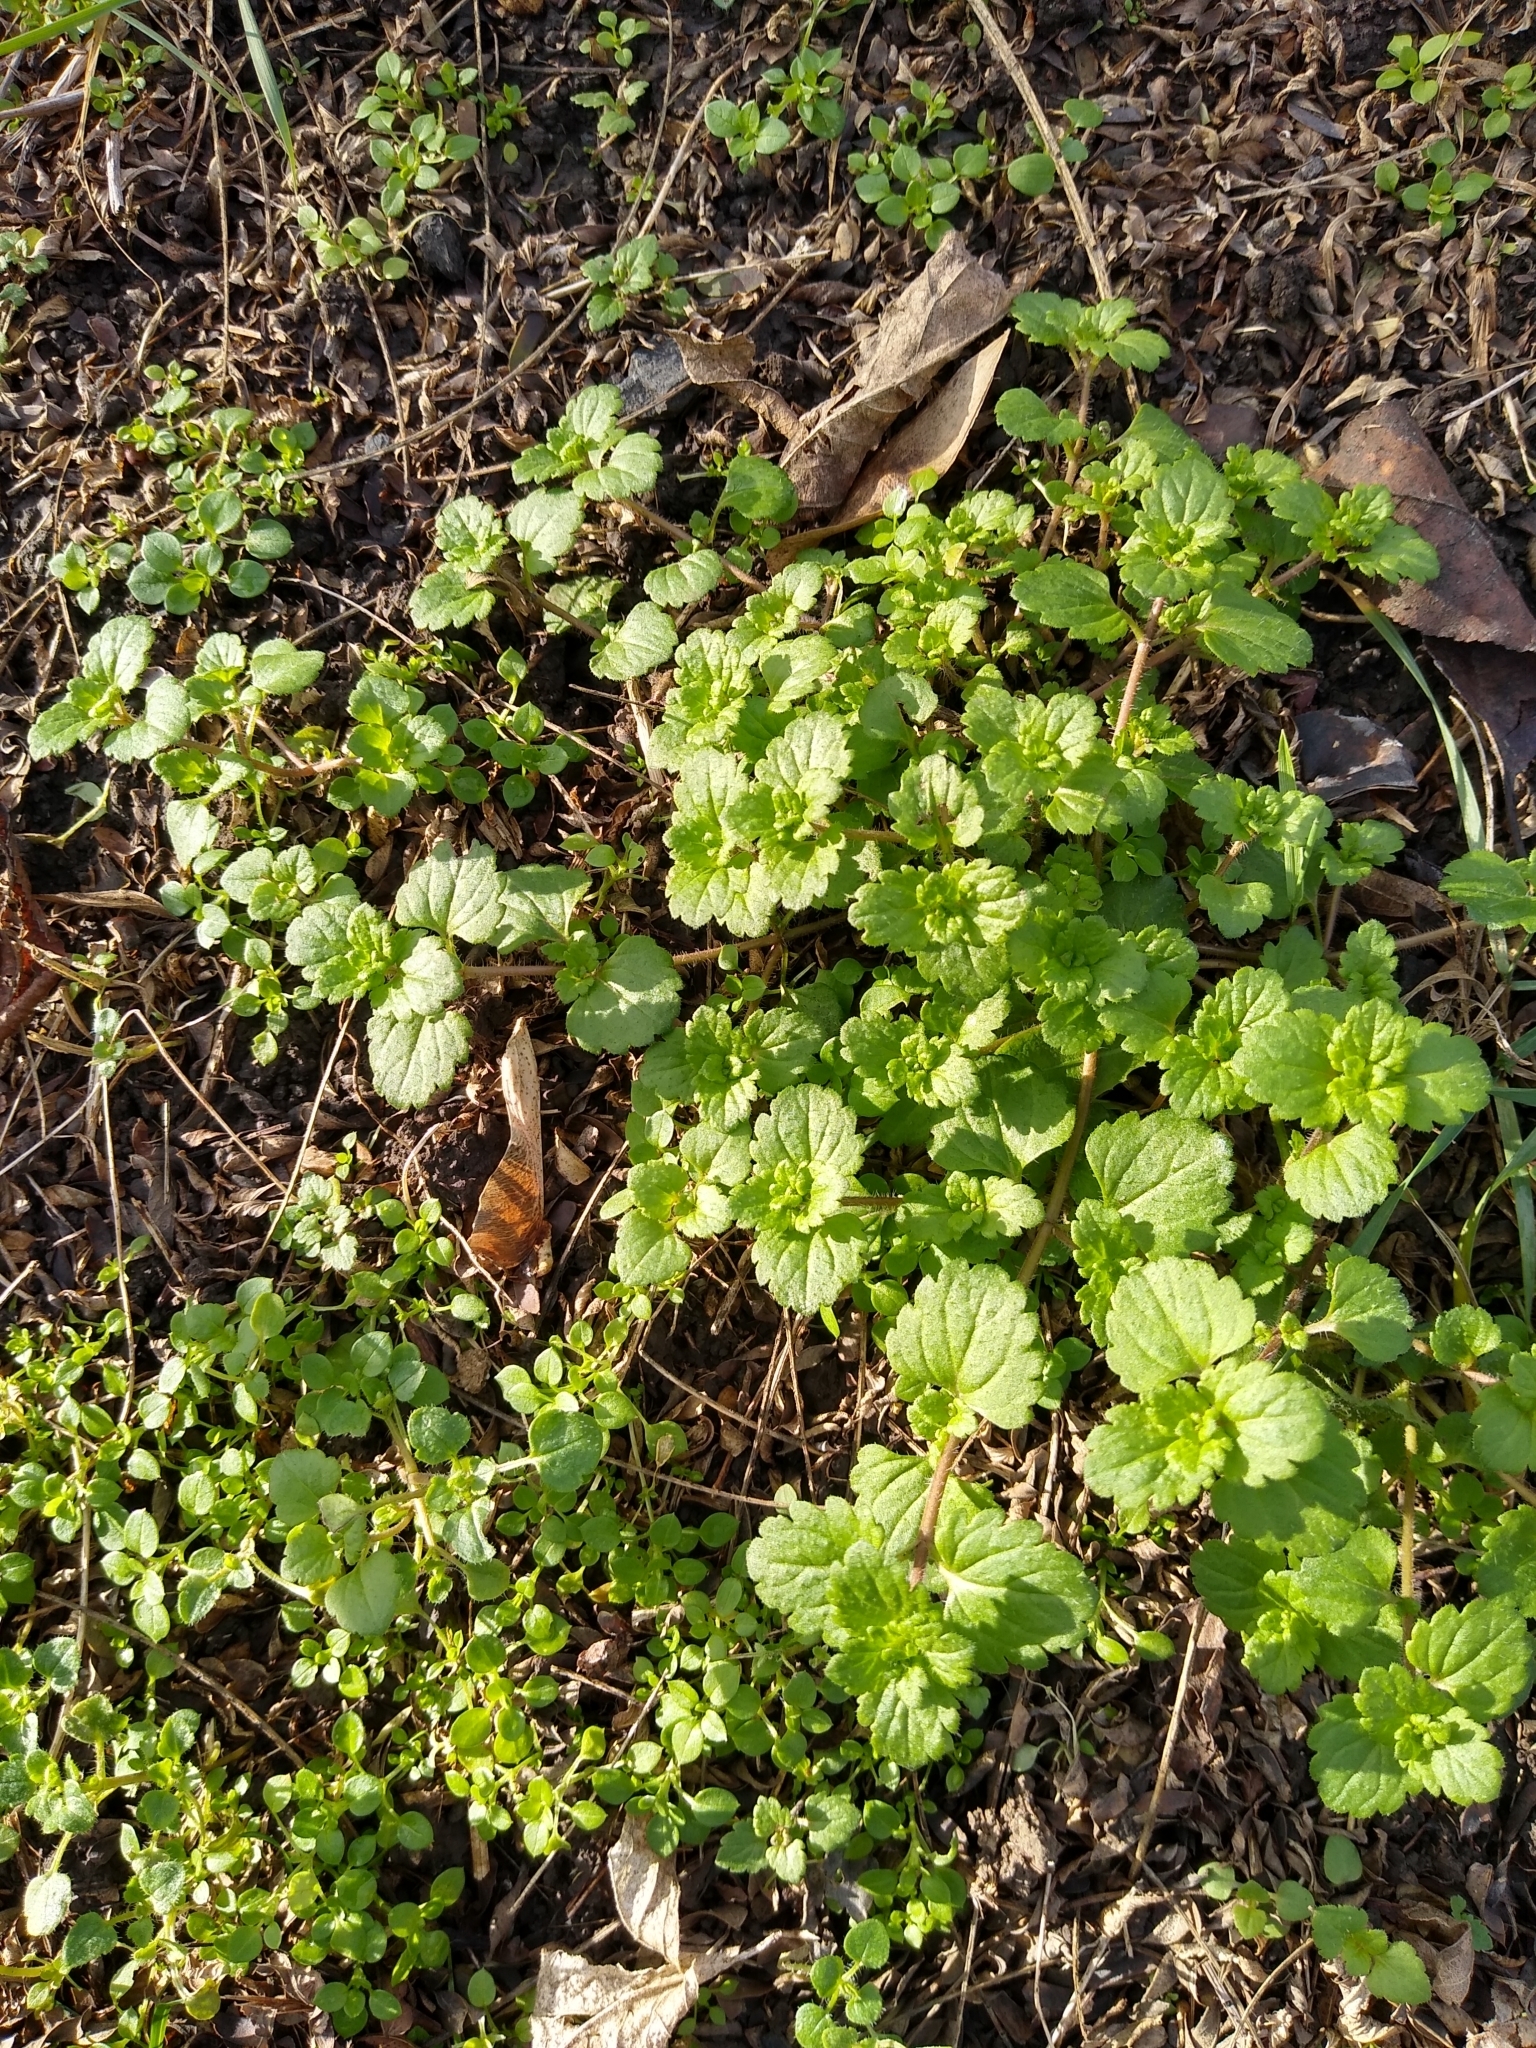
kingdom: Plantae
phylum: Tracheophyta
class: Magnoliopsida
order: Lamiales
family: Lamiaceae
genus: Lamium
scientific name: Lamium amplexicaule
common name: Henbit dead-nettle
